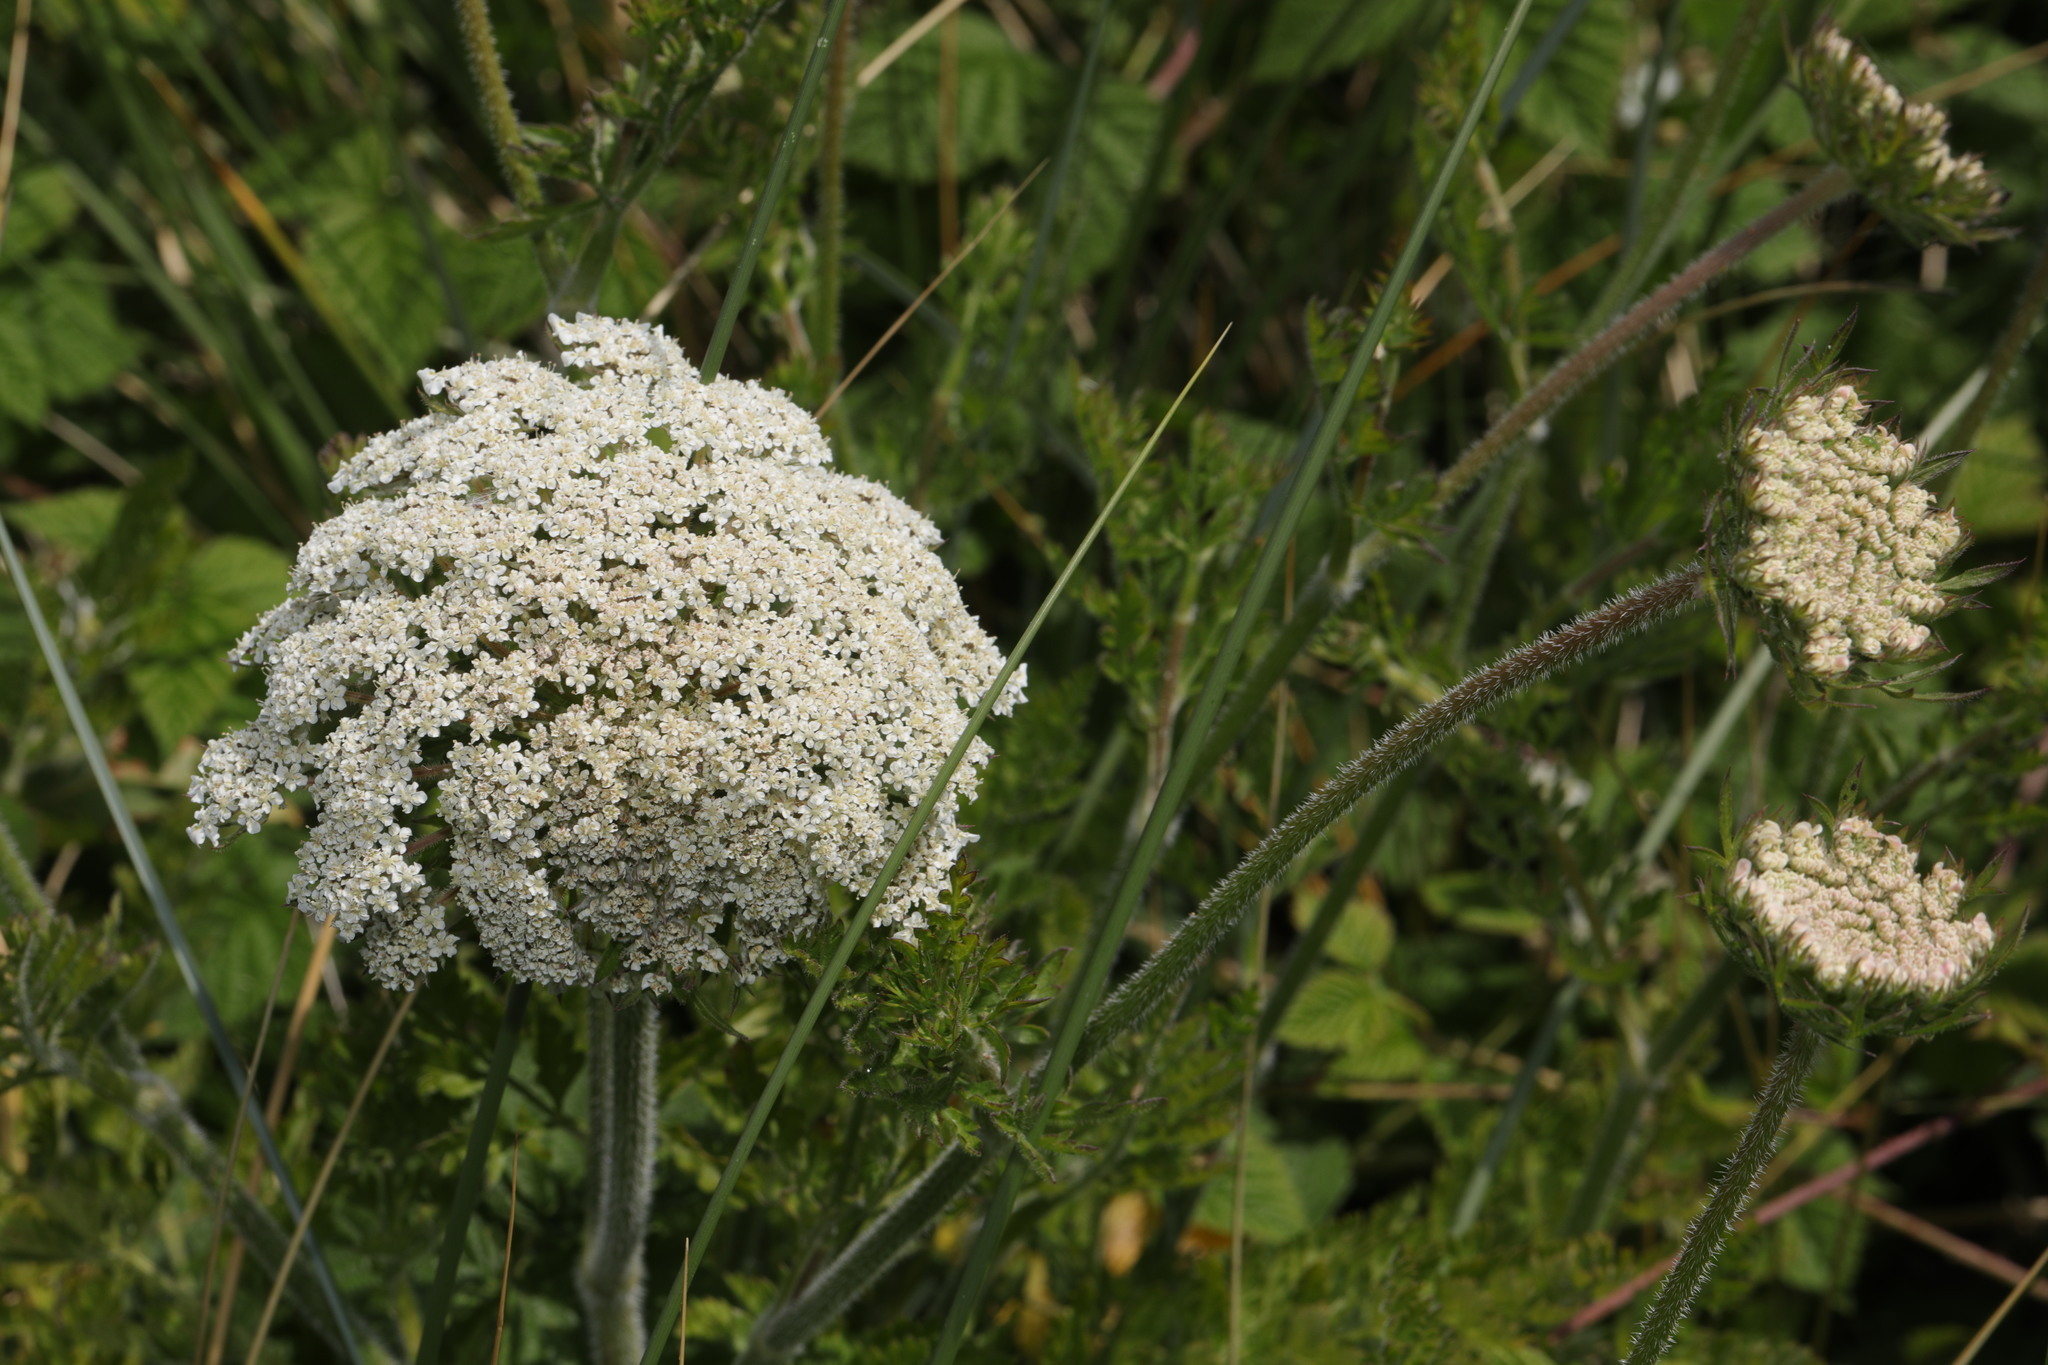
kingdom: Plantae
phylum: Tracheophyta
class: Magnoliopsida
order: Apiales
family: Apiaceae
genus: Daucus
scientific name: Daucus carota
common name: Wild carrot
